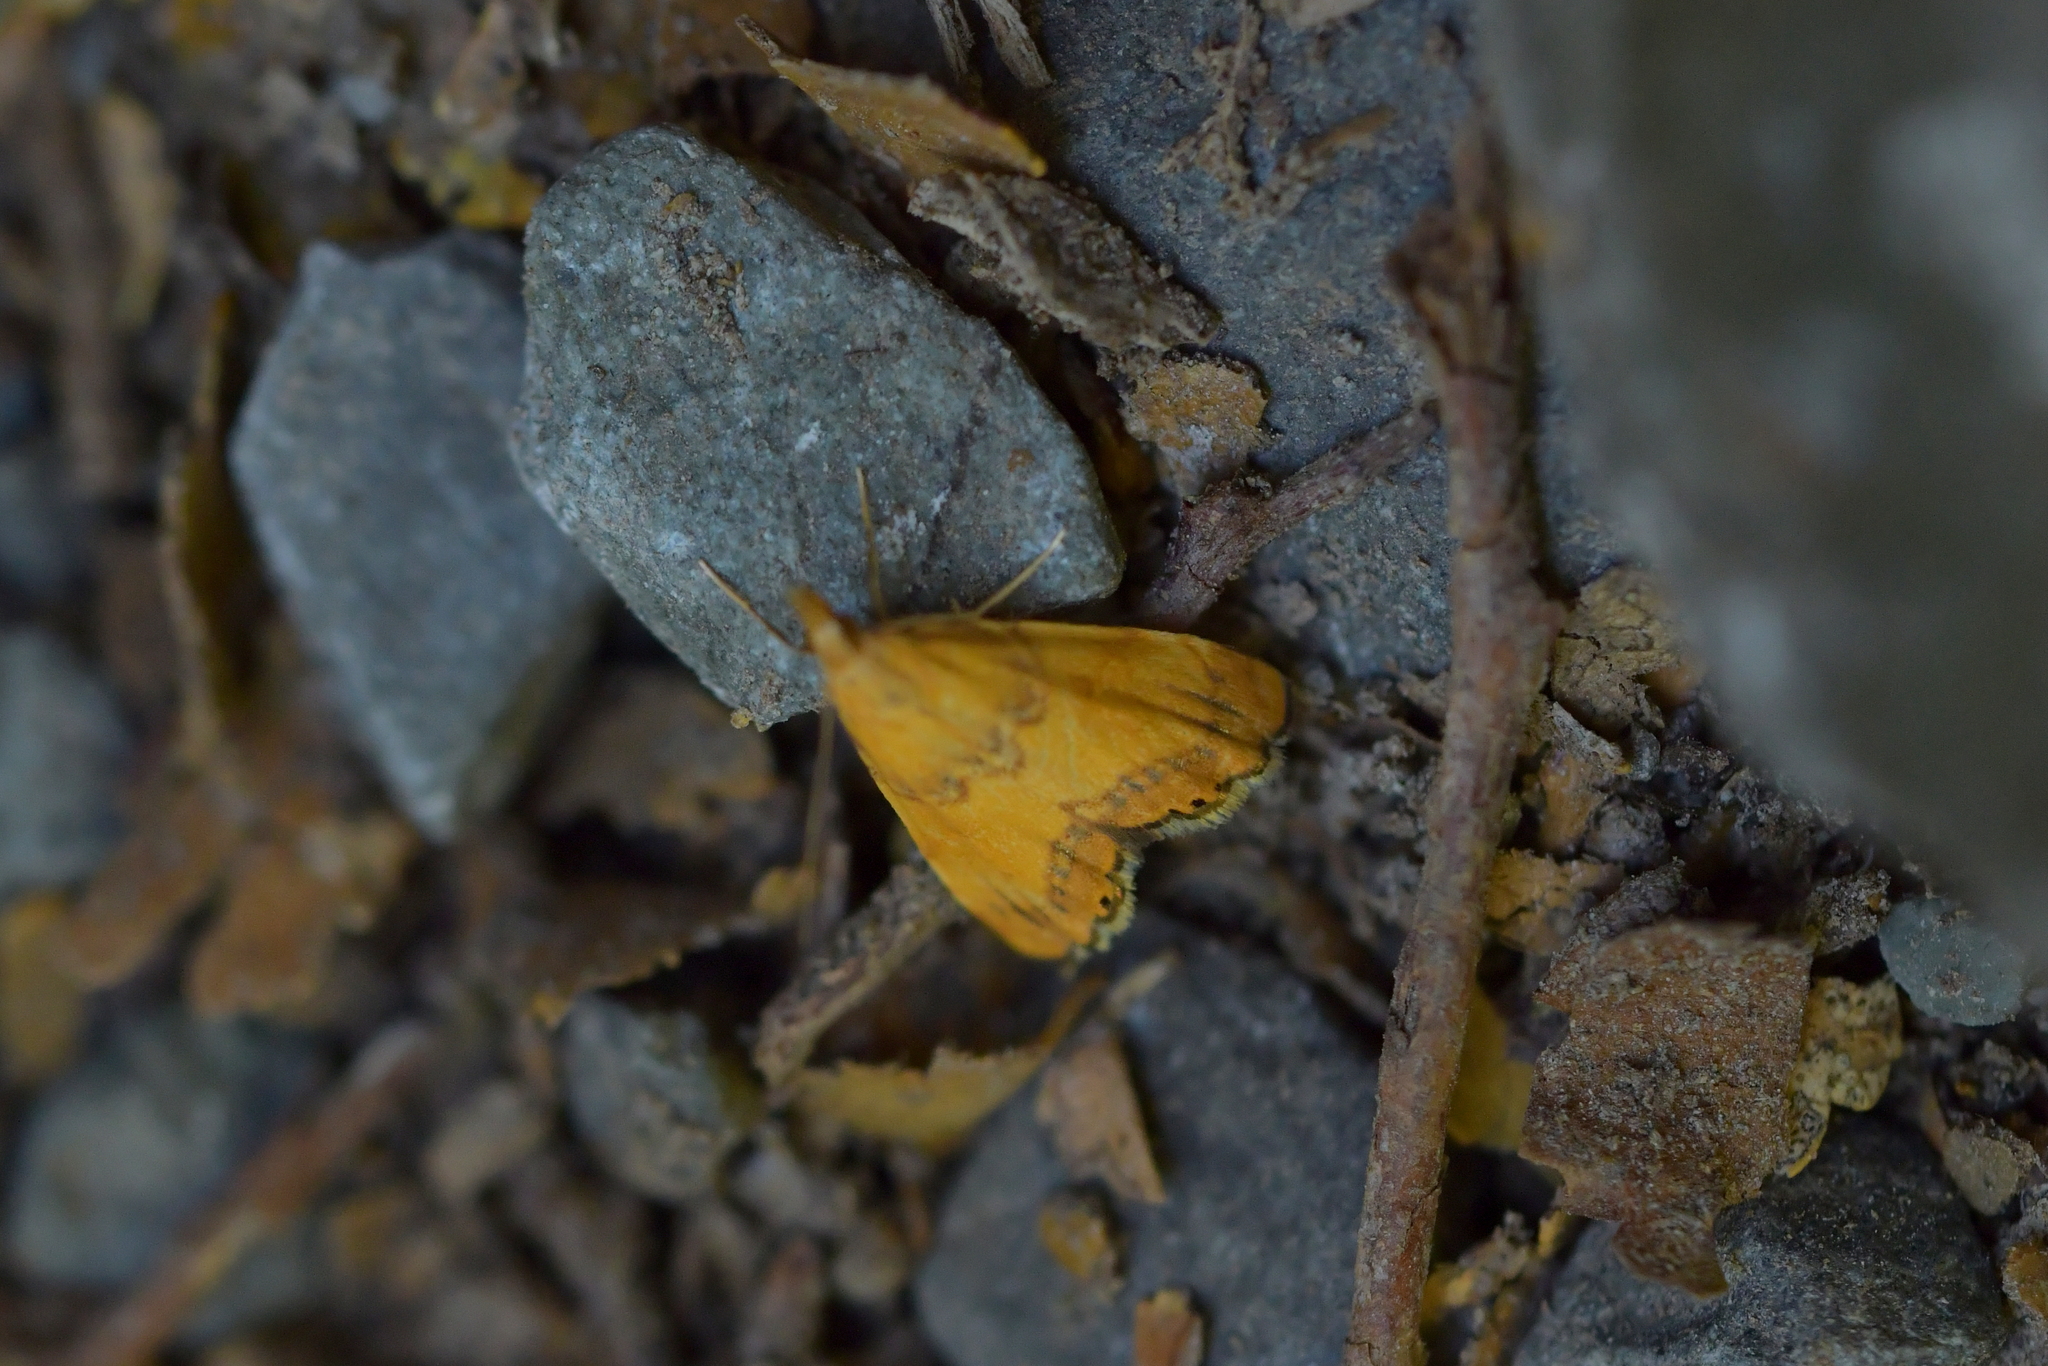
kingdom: Animalia
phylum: Arthropoda
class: Insecta
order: Lepidoptera
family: Crambidae
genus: Glaucocharis
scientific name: Glaucocharis leucoxantha
